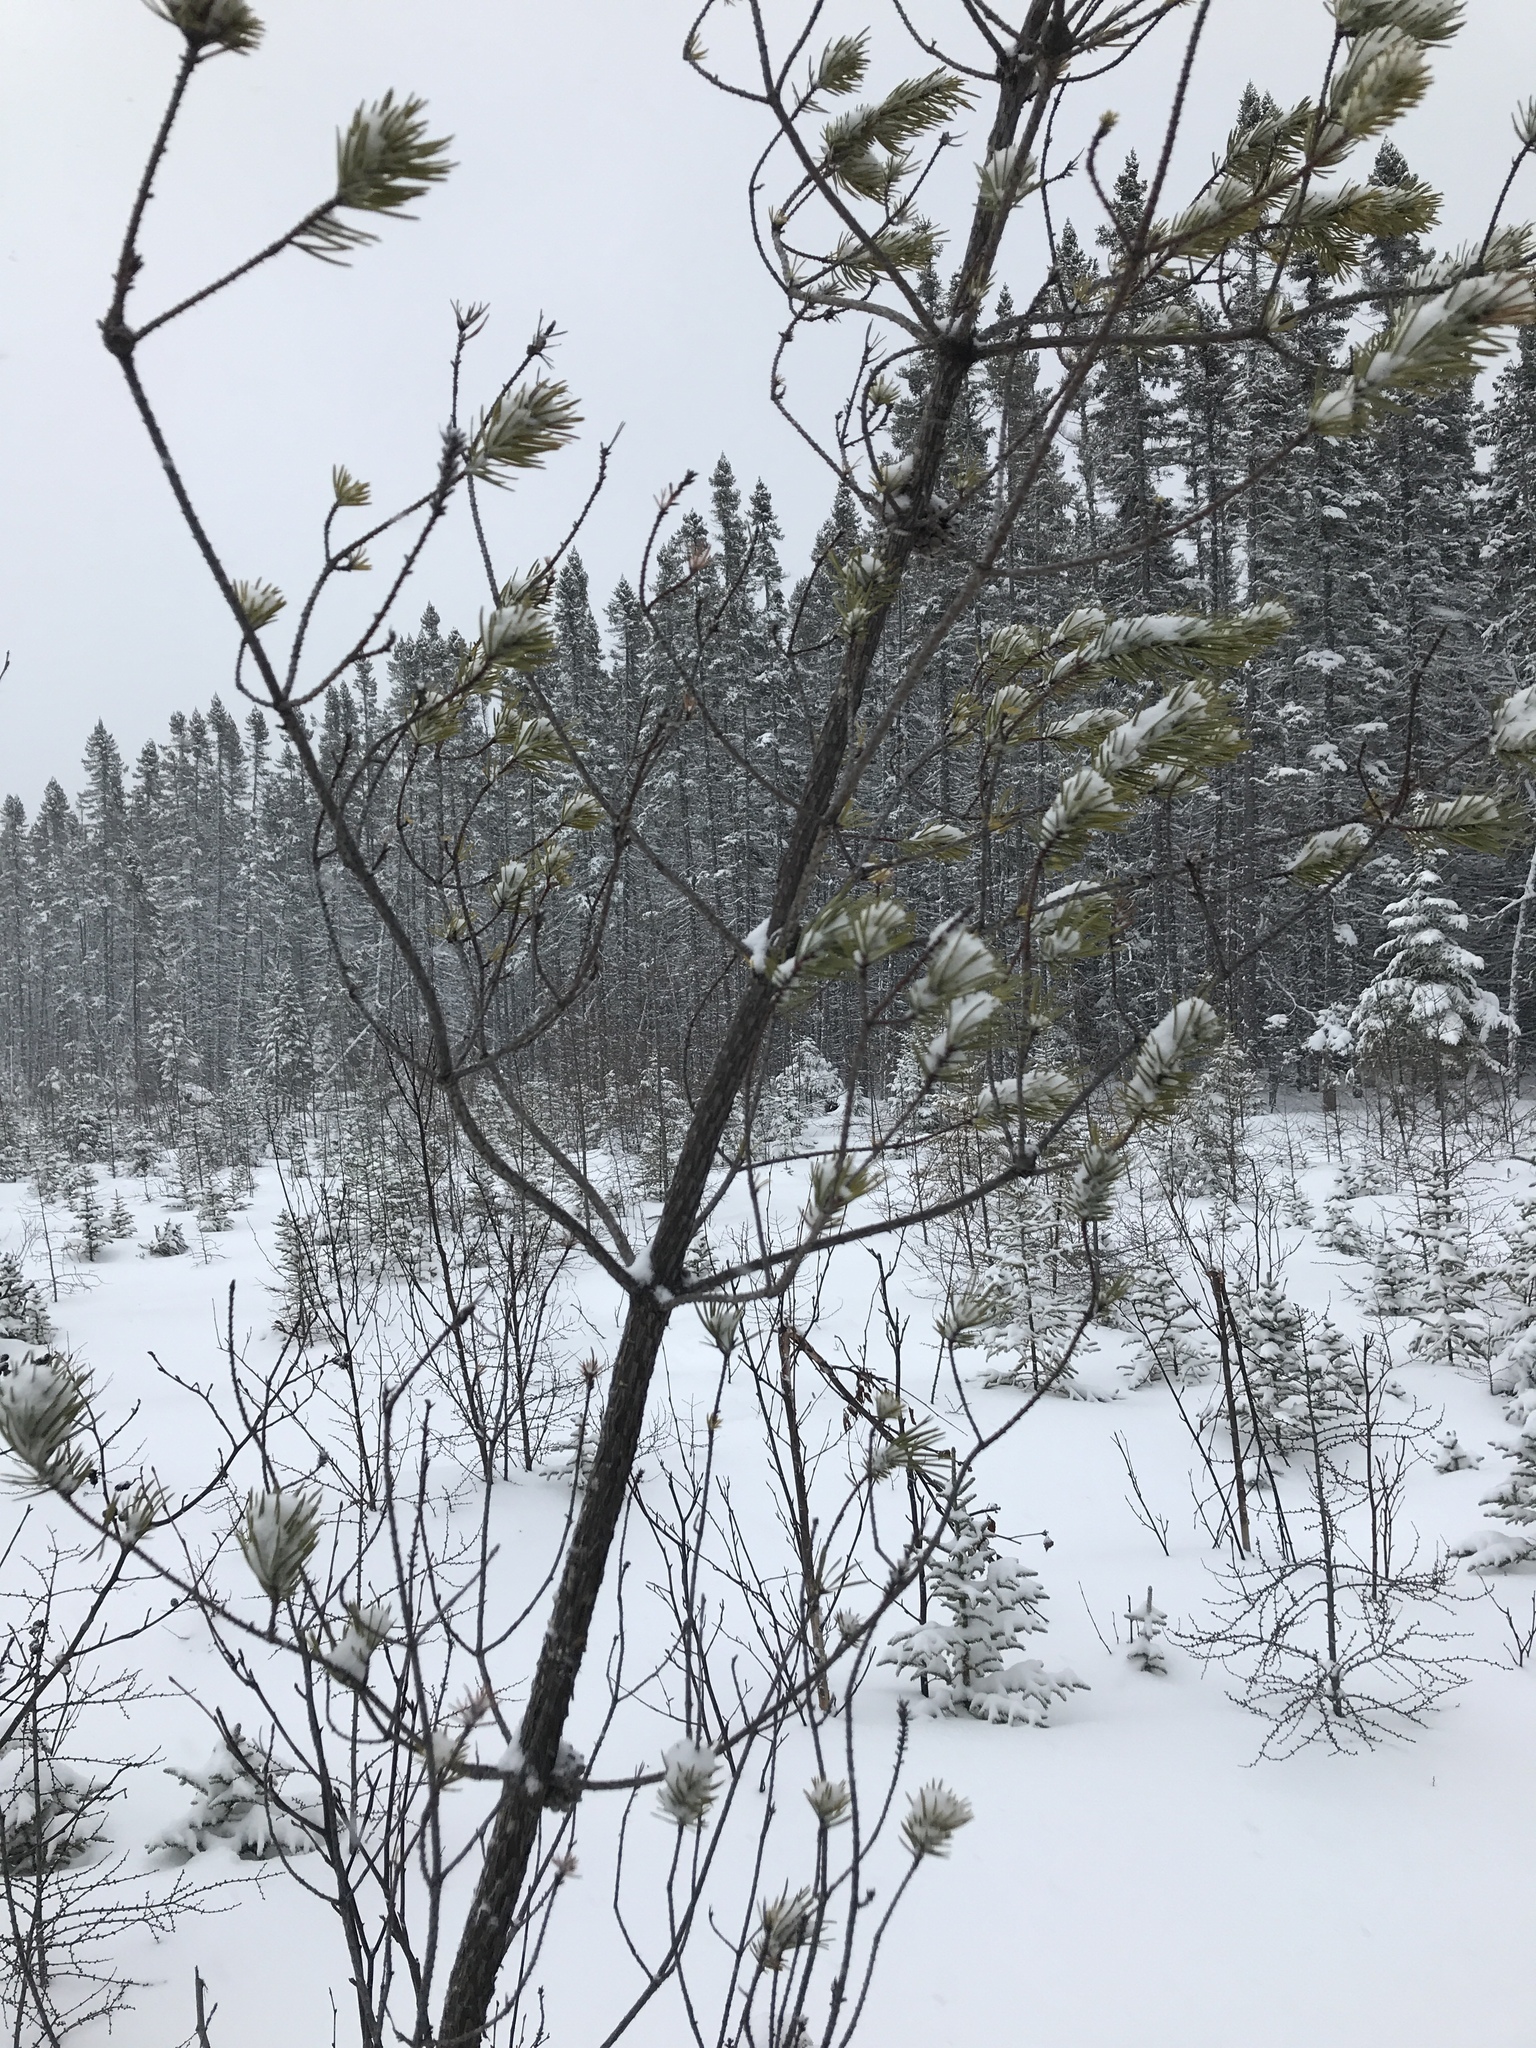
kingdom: Plantae
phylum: Tracheophyta
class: Pinopsida
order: Pinales
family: Pinaceae
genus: Pinus
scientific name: Pinus banksiana
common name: Jack pine
